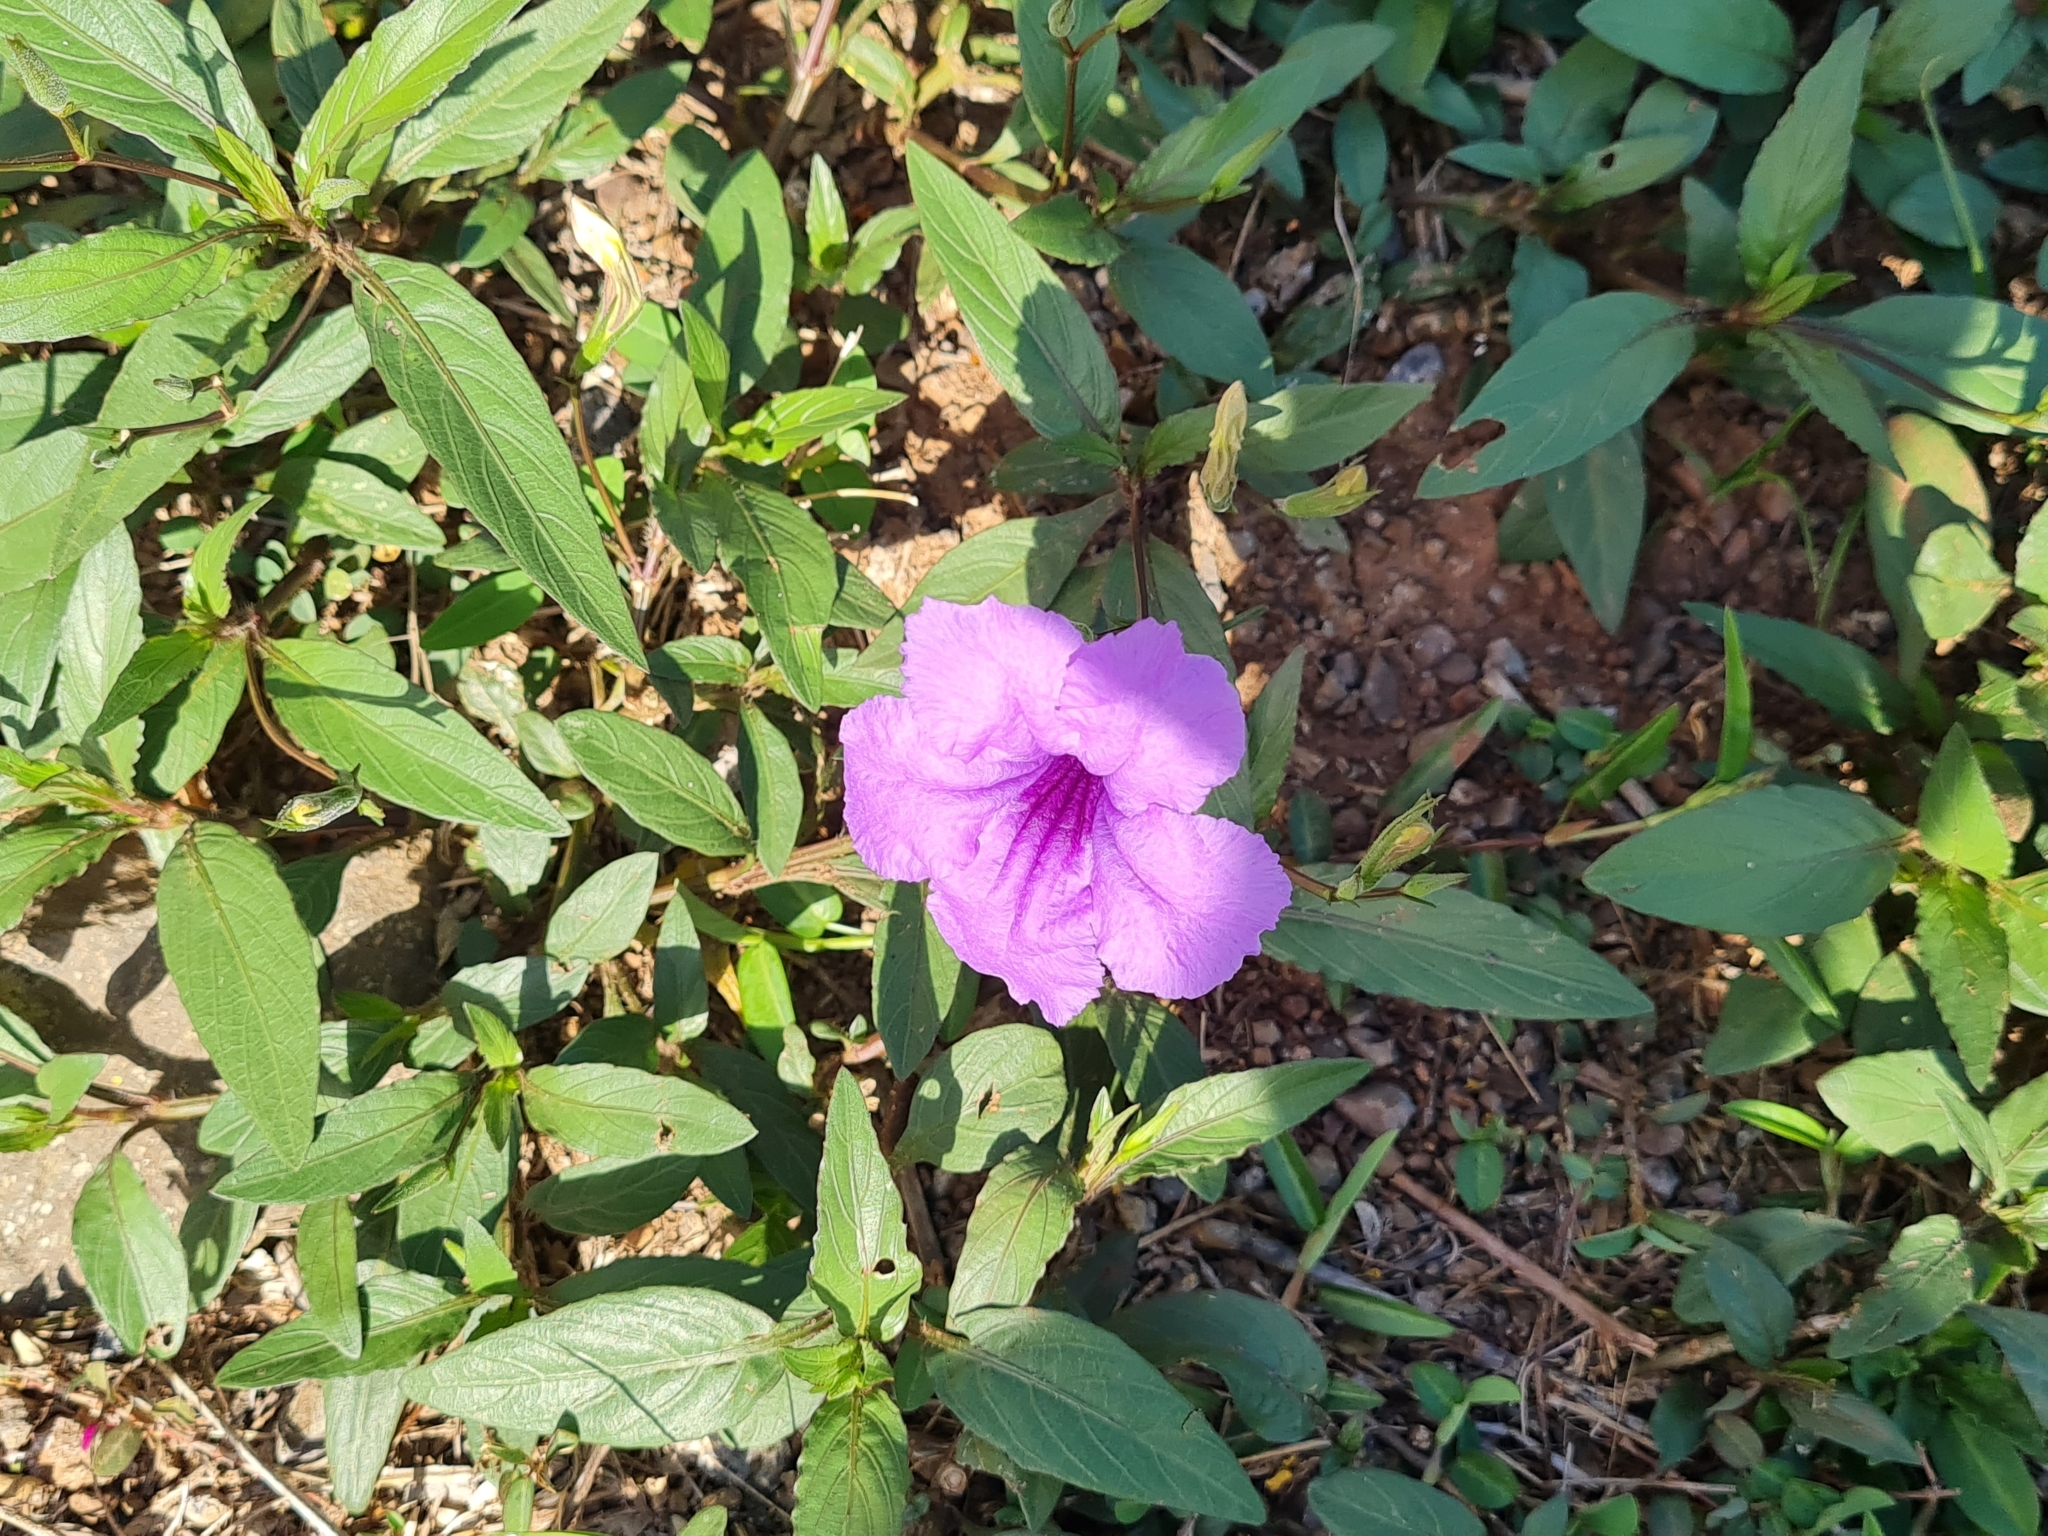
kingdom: Plantae
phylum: Tracheophyta
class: Magnoliopsida
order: Lamiales
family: Acanthaceae
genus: Ruellia
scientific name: Ruellia simplex
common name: Softseed wild petunia
